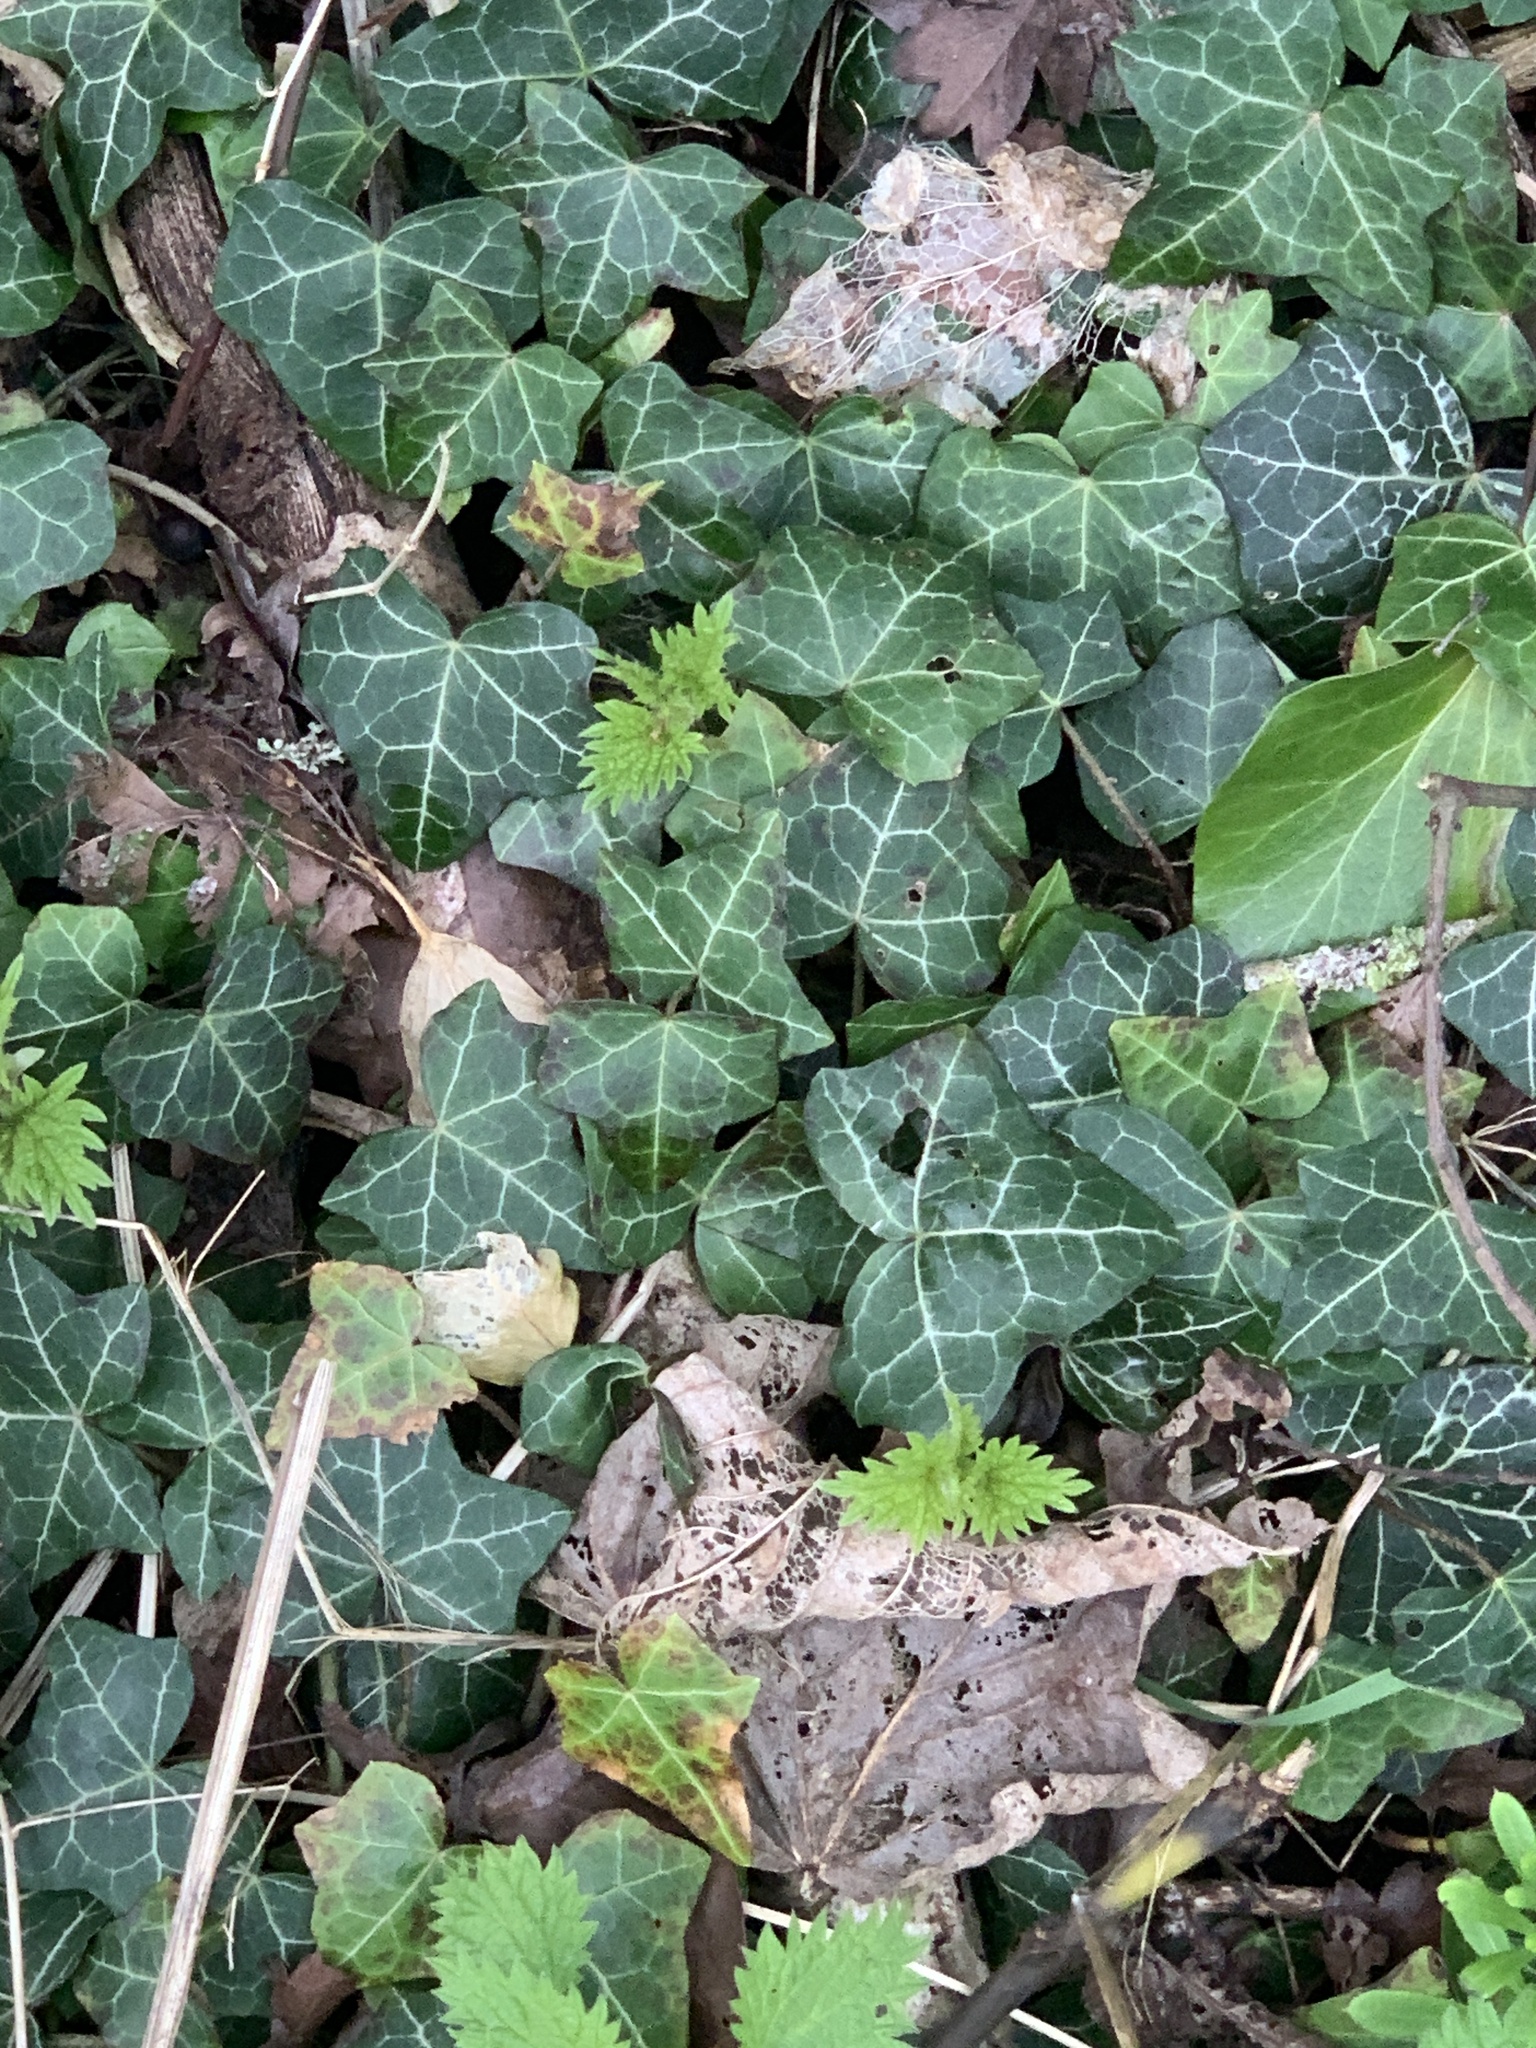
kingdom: Plantae
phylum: Tracheophyta
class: Magnoliopsida
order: Apiales
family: Araliaceae
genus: Hedera
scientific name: Hedera helix
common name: Ivy
